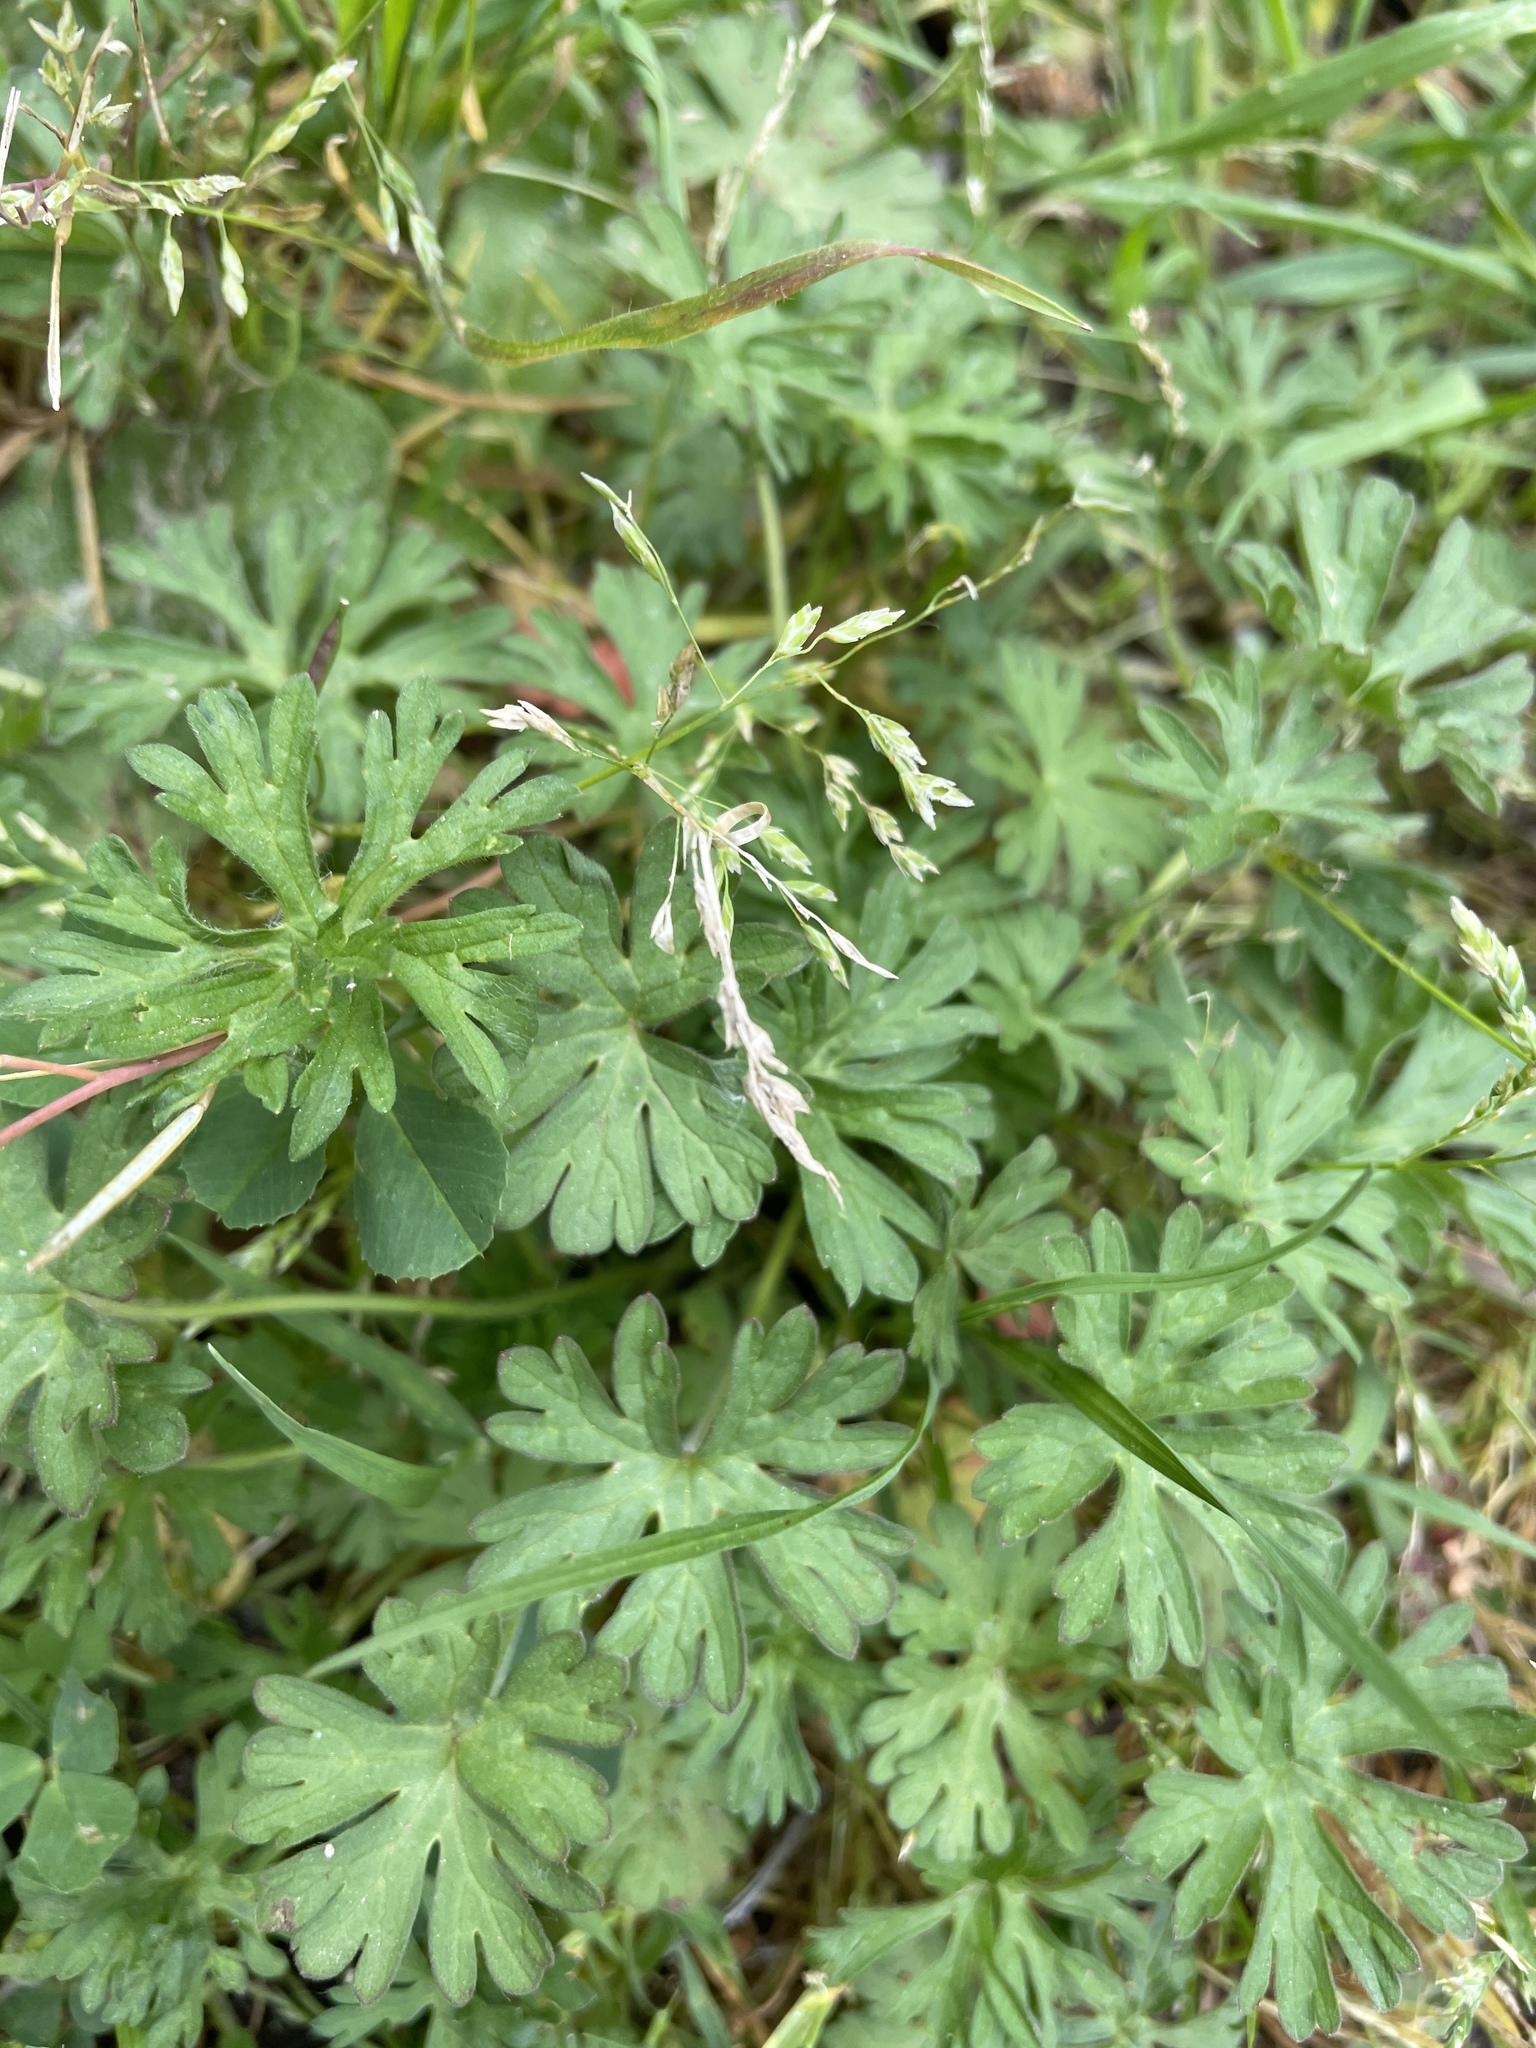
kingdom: Plantae
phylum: Tracheophyta
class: Magnoliopsida
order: Geraniales
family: Geraniaceae
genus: Geranium
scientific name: Geranium
